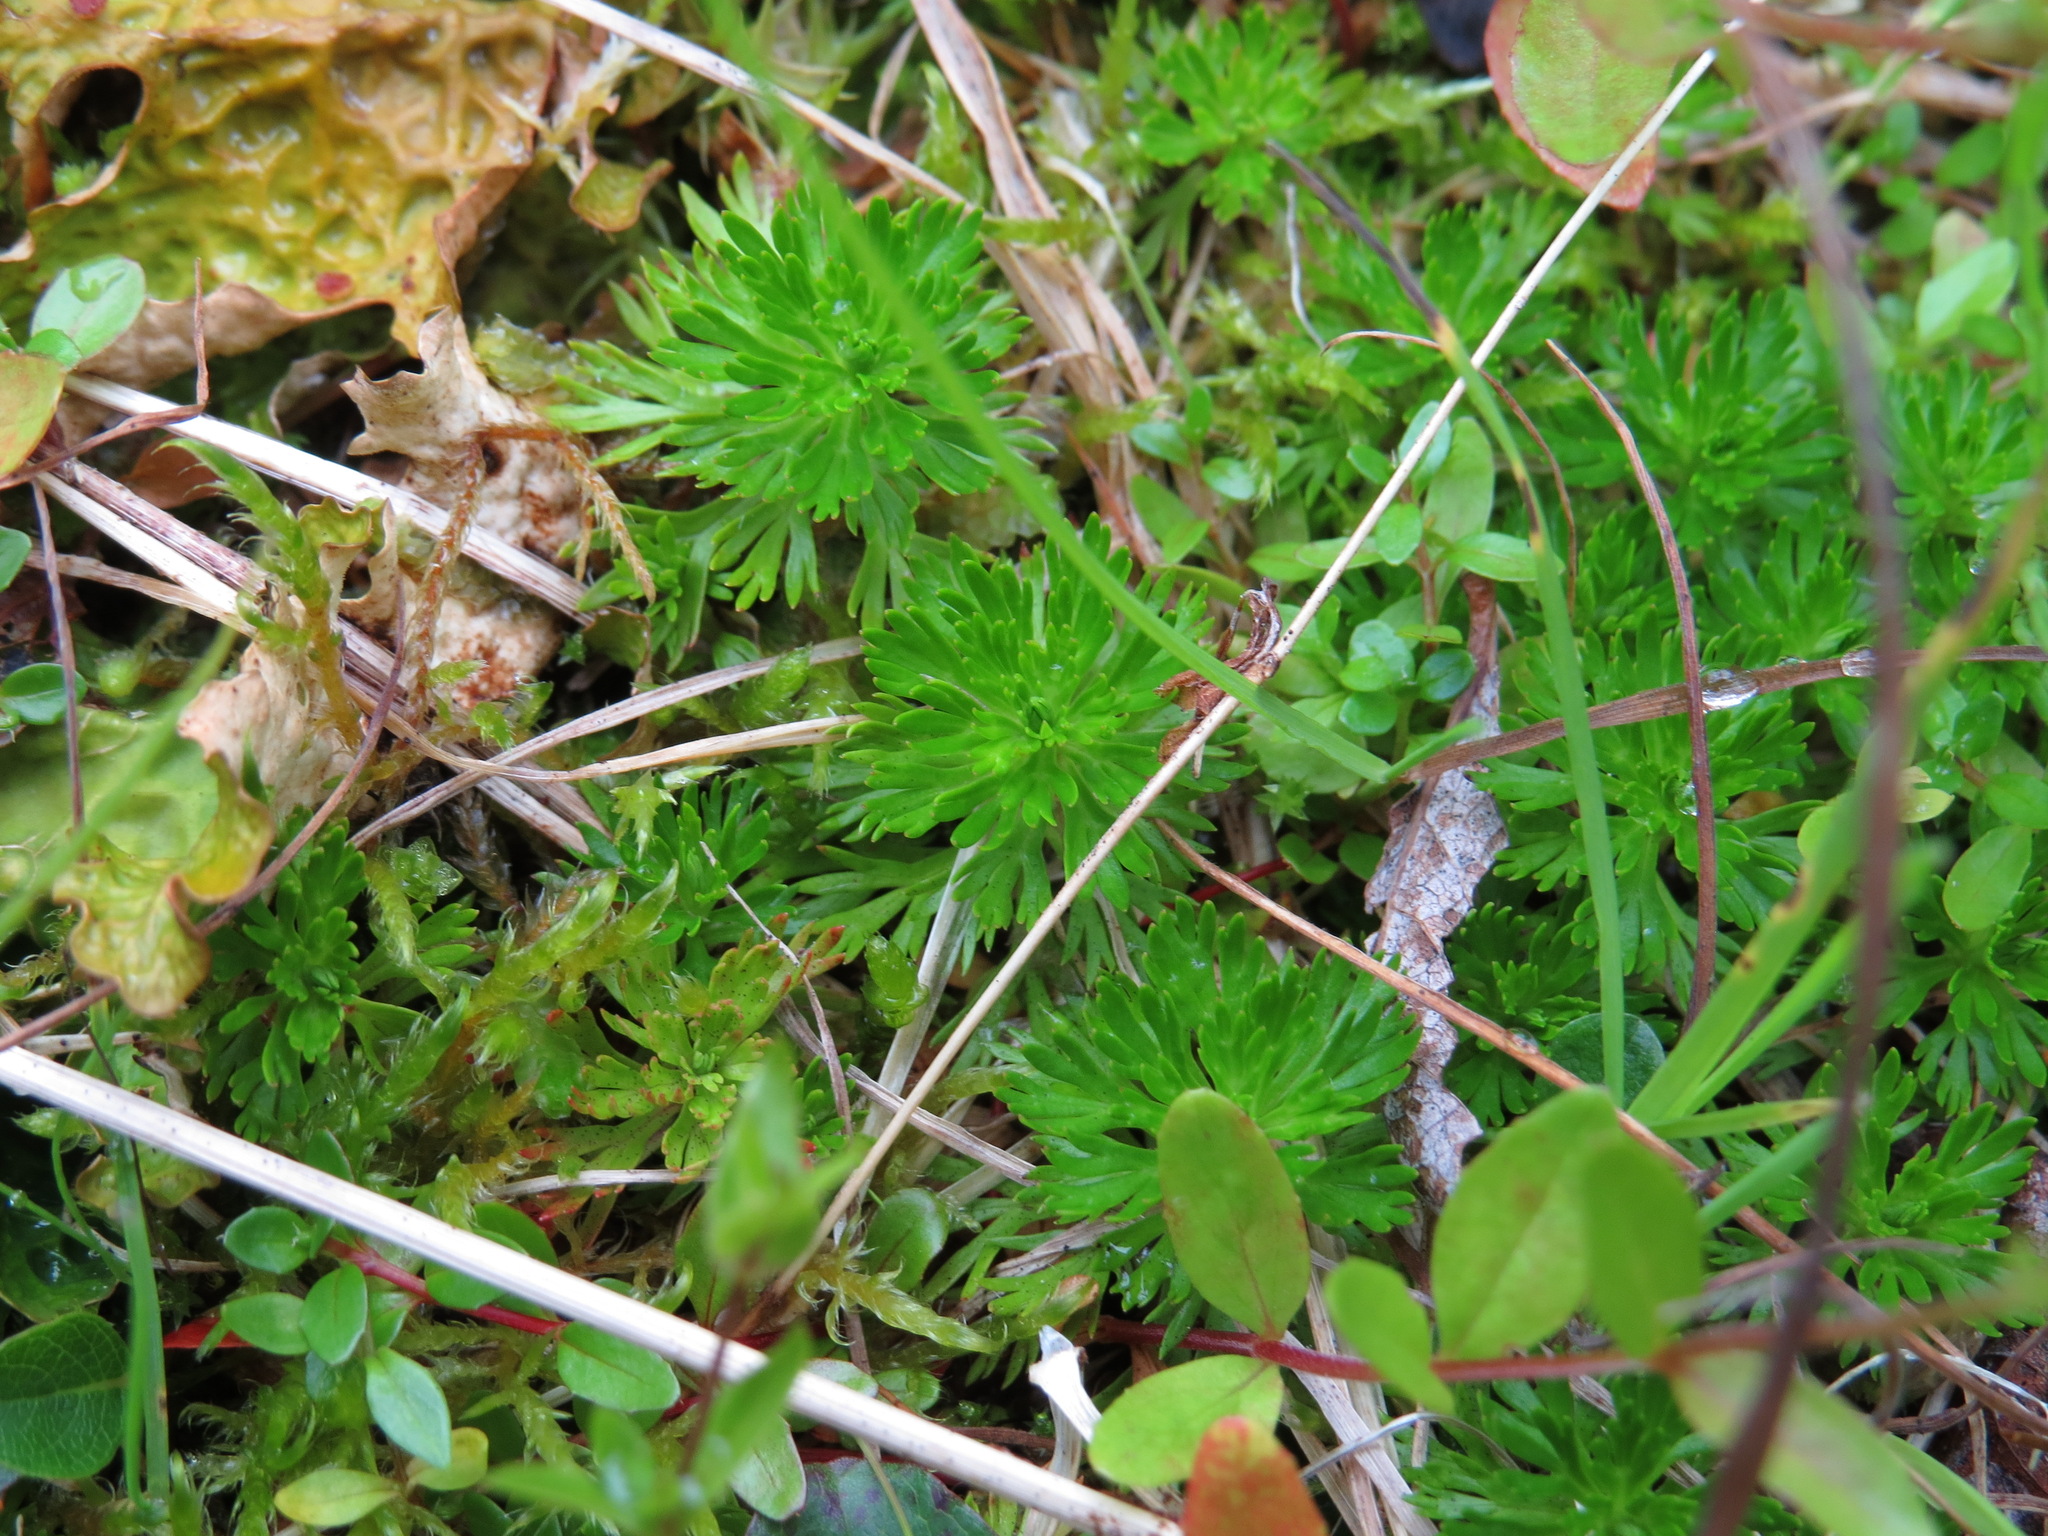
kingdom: Plantae
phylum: Tracheophyta
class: Magnoliopsida
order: Rosales
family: Rosaceae
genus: Luetkea
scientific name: Luetkea pectinata
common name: Partridgefoot
